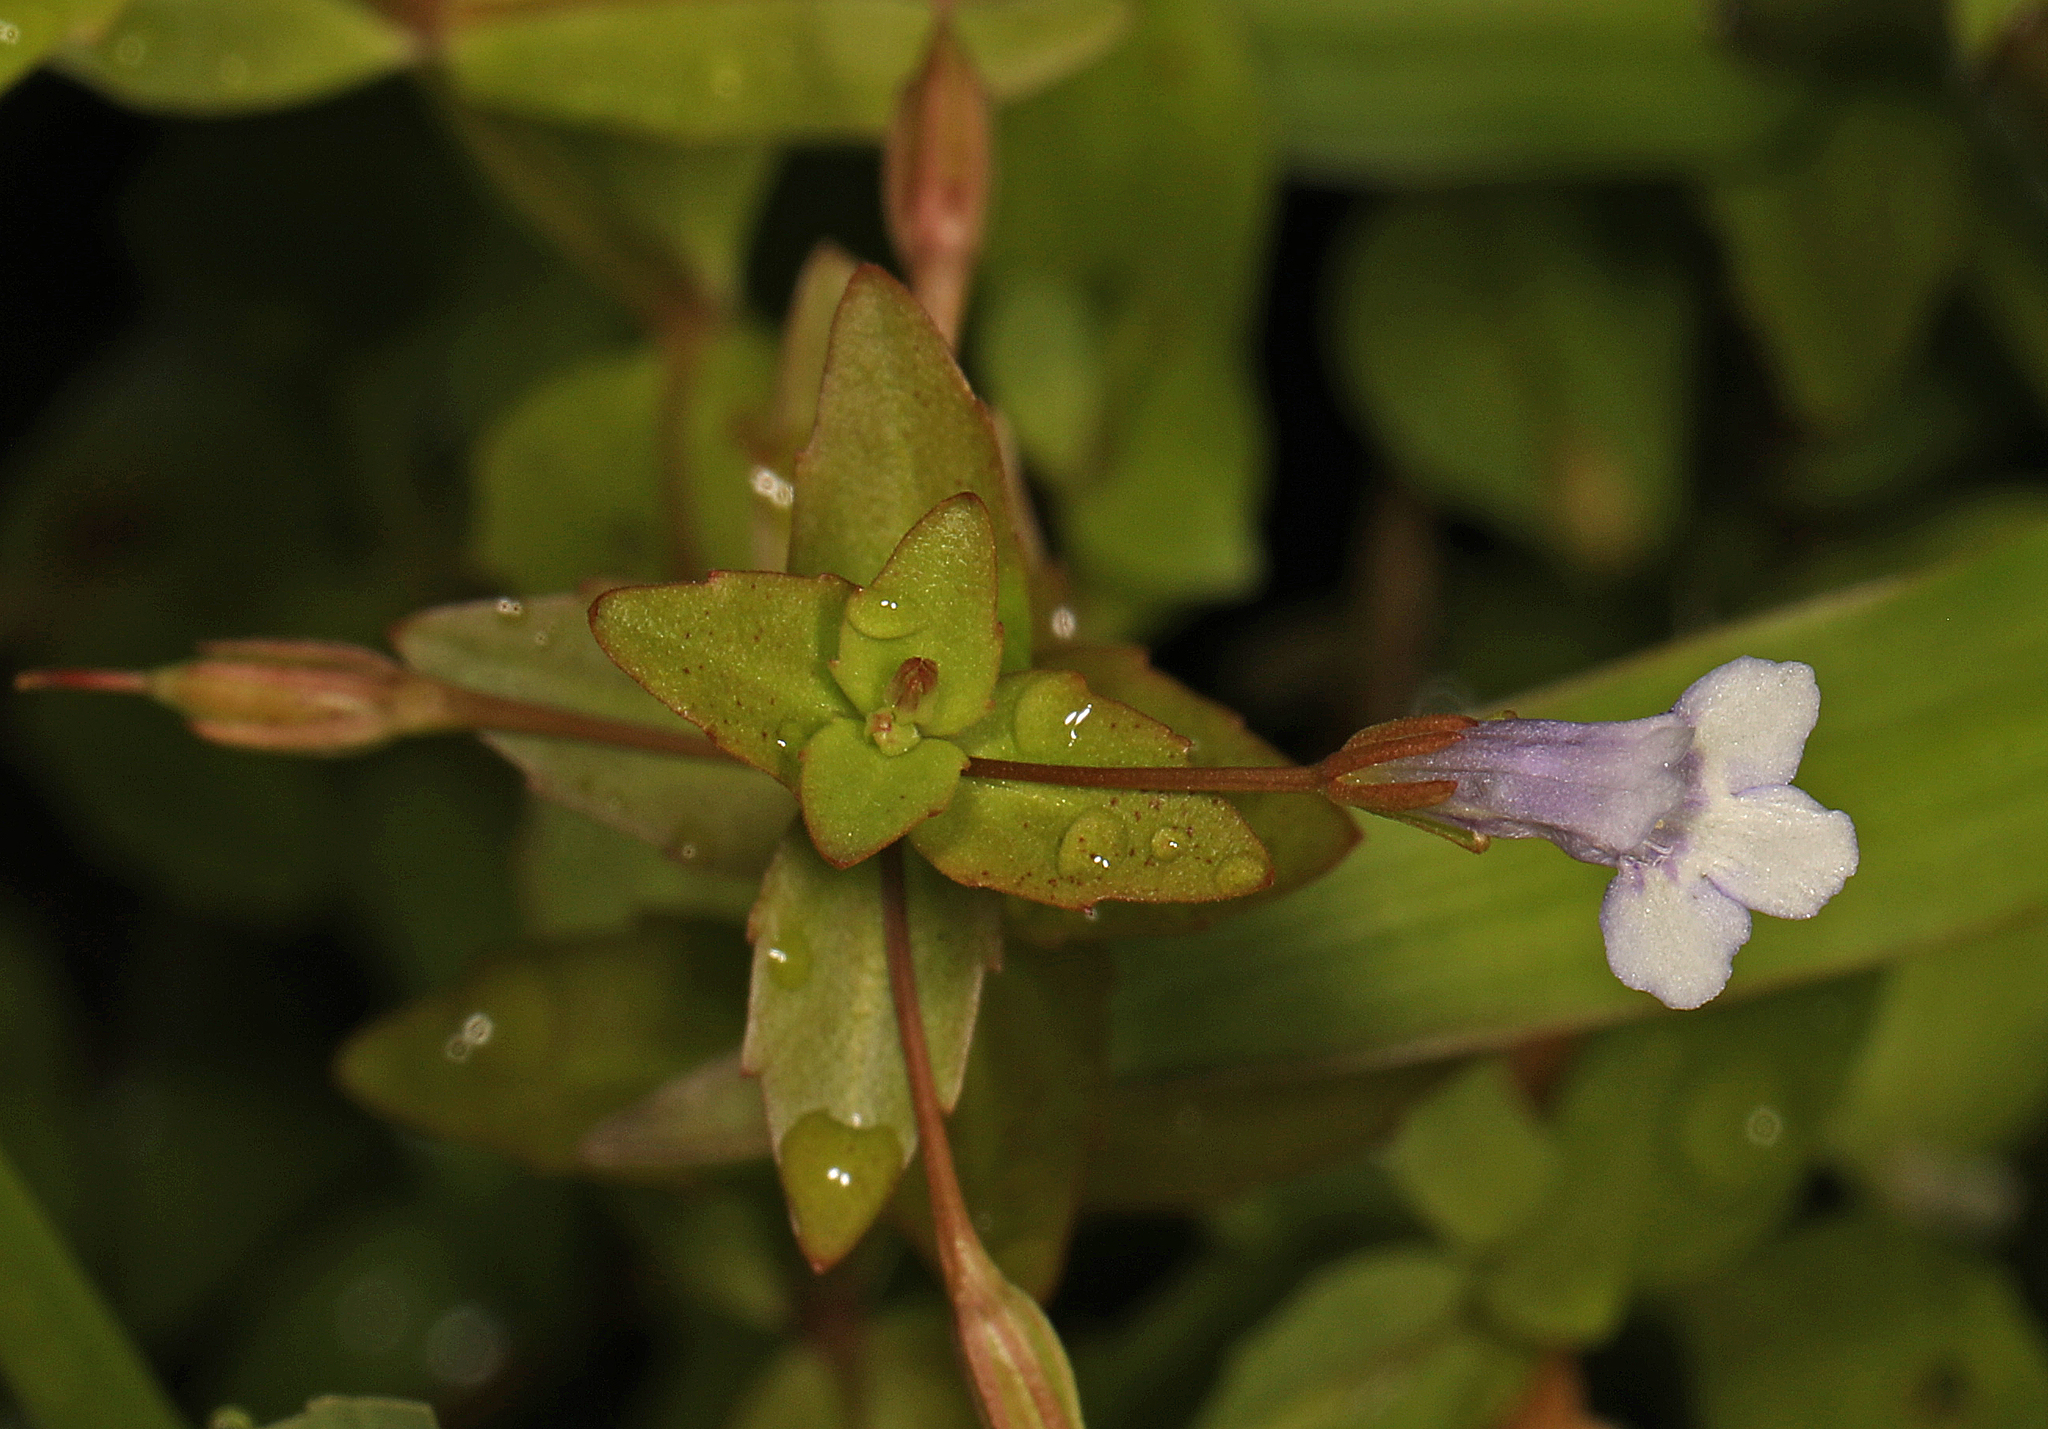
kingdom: Plantae
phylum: Tracheophyta
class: Magnoliopsida
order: Lamiales
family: Linderniaceae
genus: Lindernia
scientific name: Lindernia dubia
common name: Annual false pimpernel
